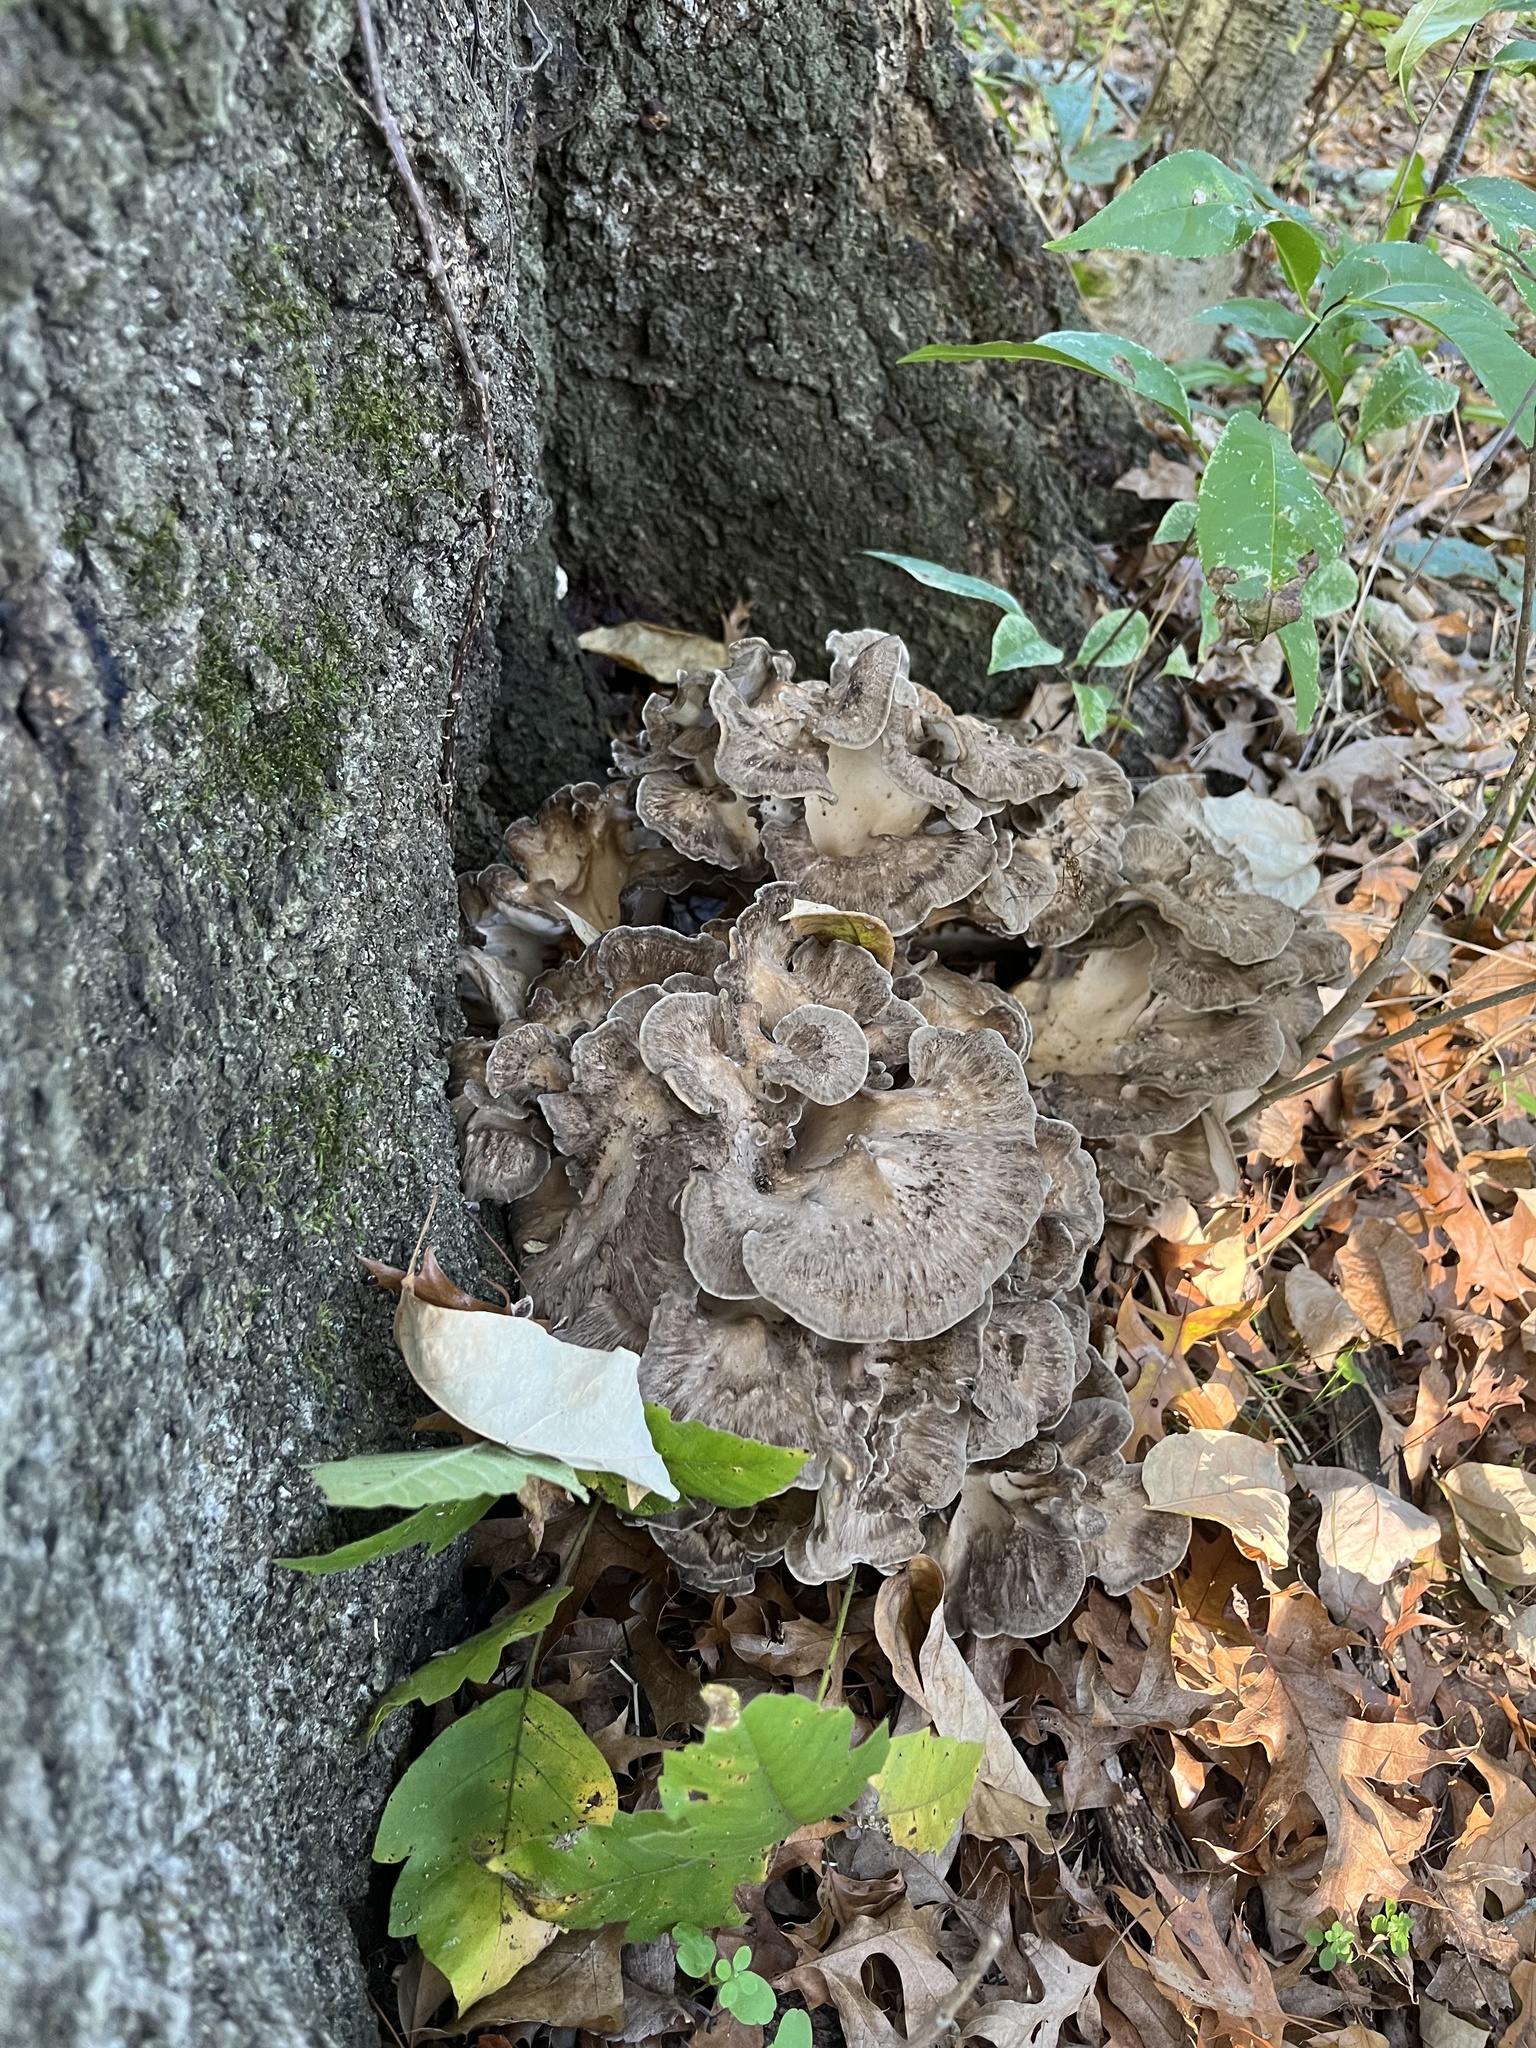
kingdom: Fungi
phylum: Basidiomycota
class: Agaricomycetes
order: Polyporales
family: Grifolaceae
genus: Grifola
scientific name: Grifola frondosa
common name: Hen of the woods
